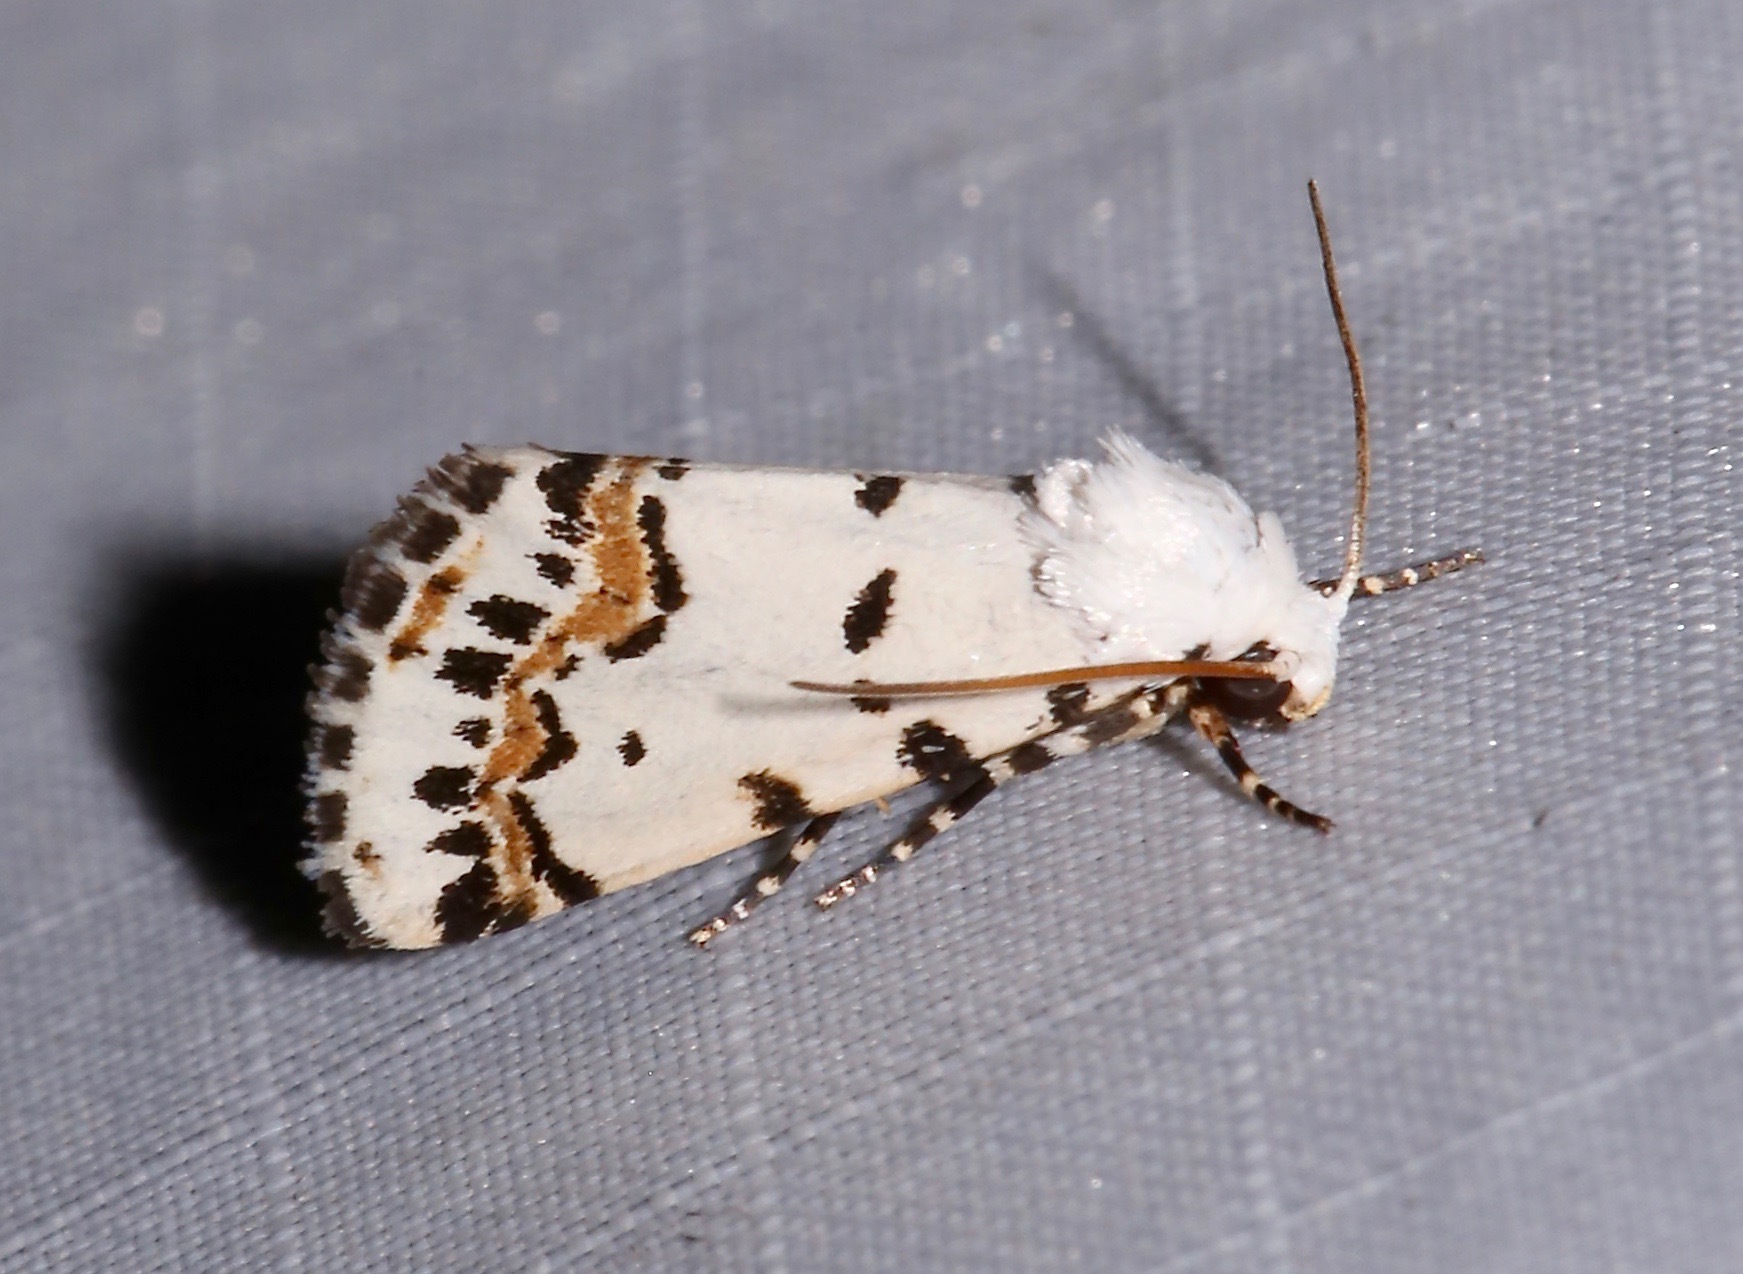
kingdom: Animalia
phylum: Arthropoda
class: Insecta
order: Lepidoptera
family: Noctuidae
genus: Grotella
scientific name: Grotella tricolor
